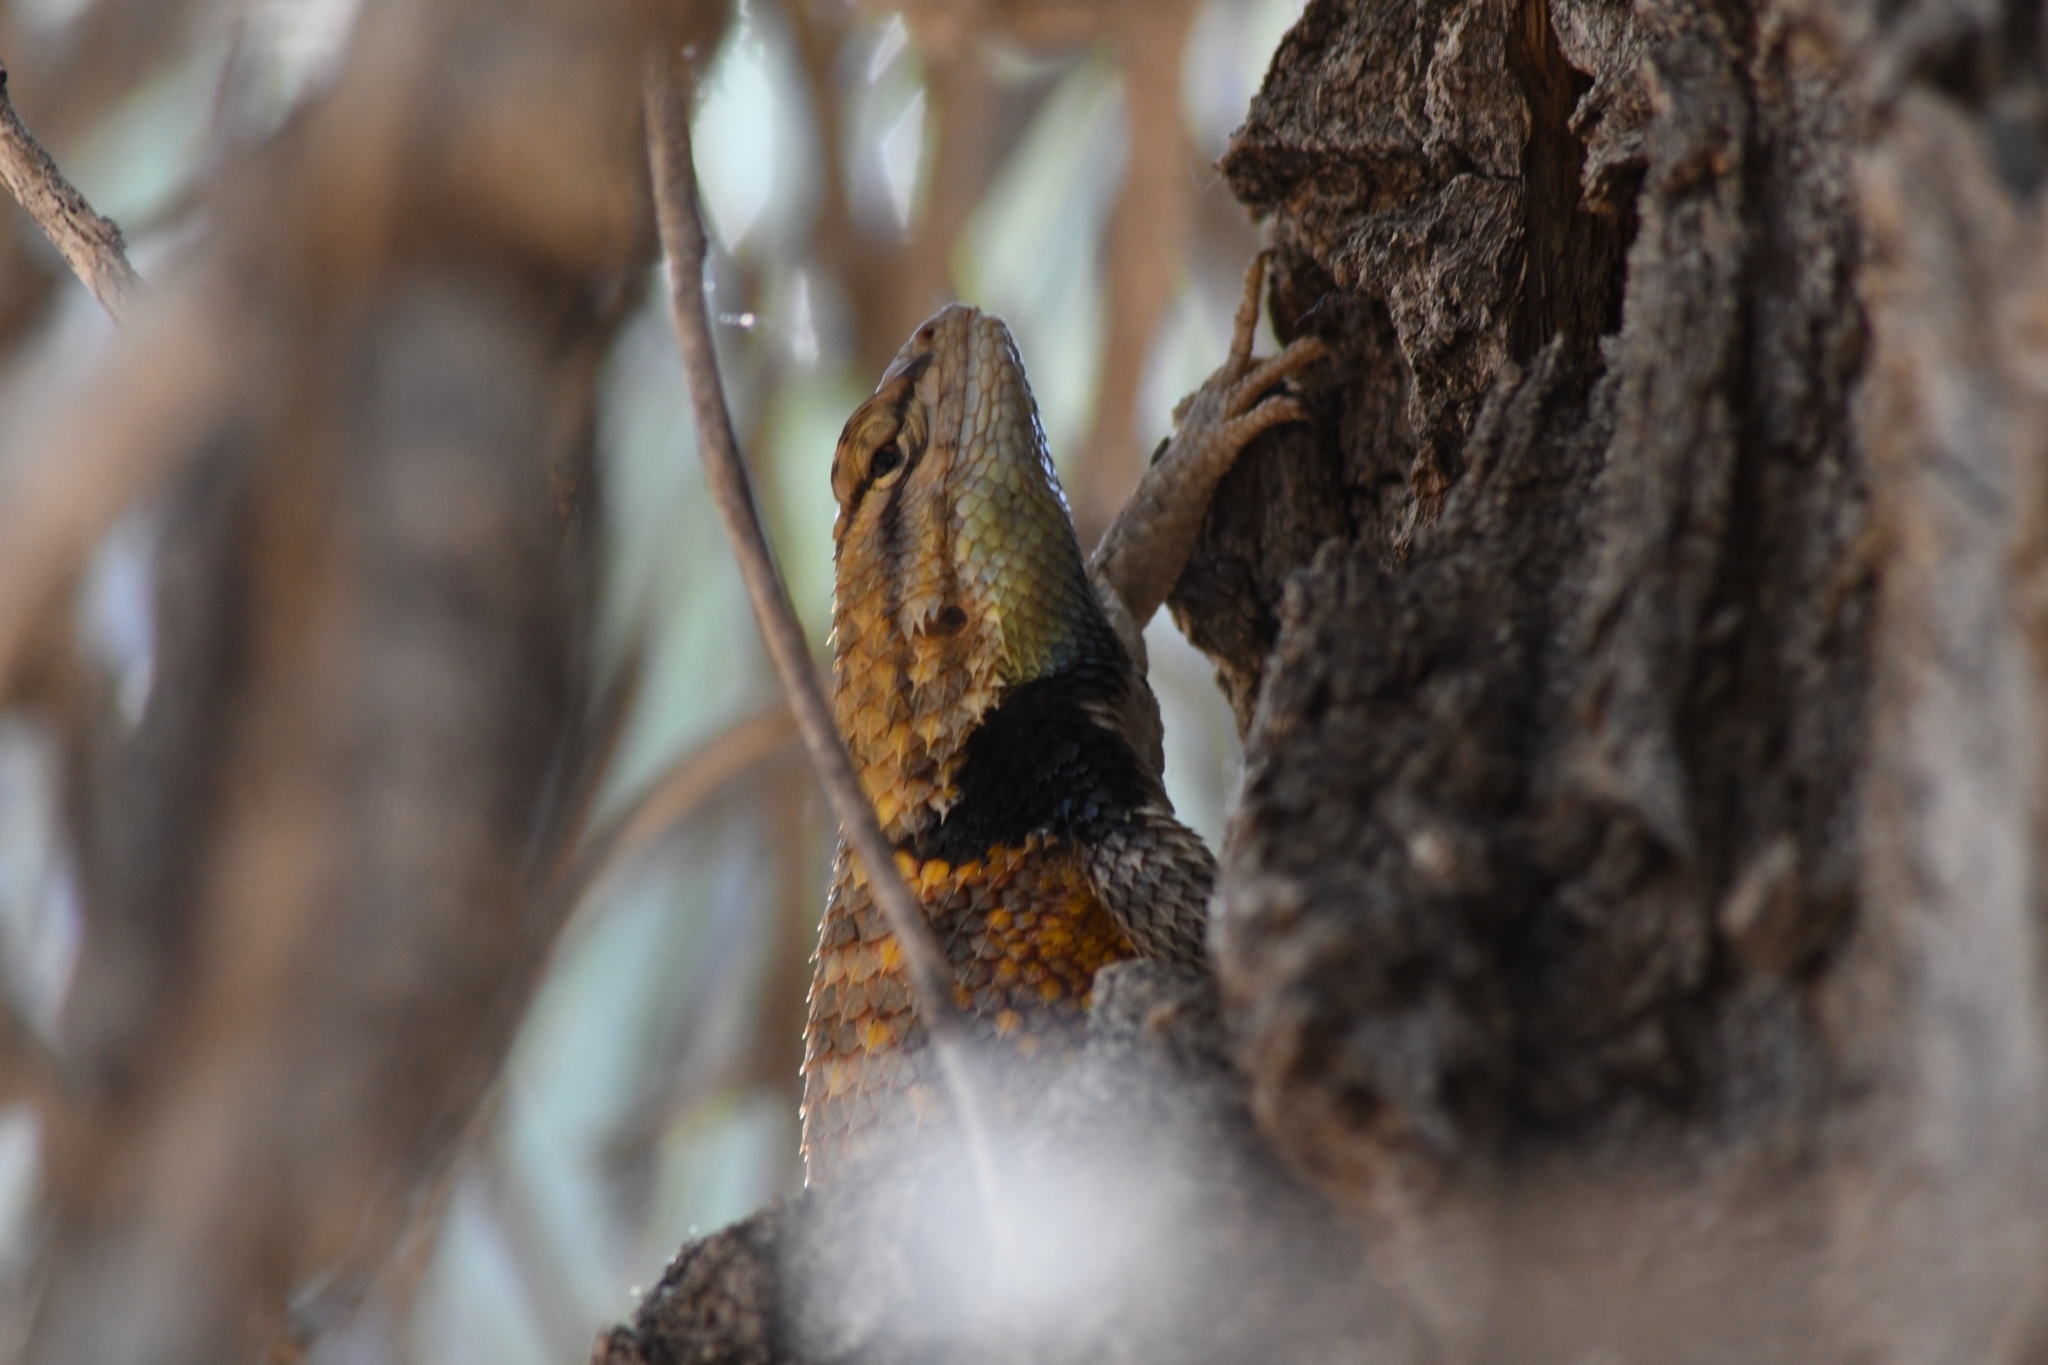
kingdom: Animalia
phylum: Chordata
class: Squamata
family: Phrynosomatidae
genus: Sceloporus
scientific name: Sceloporus uniformis
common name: Yellow-backed spiny lizard
